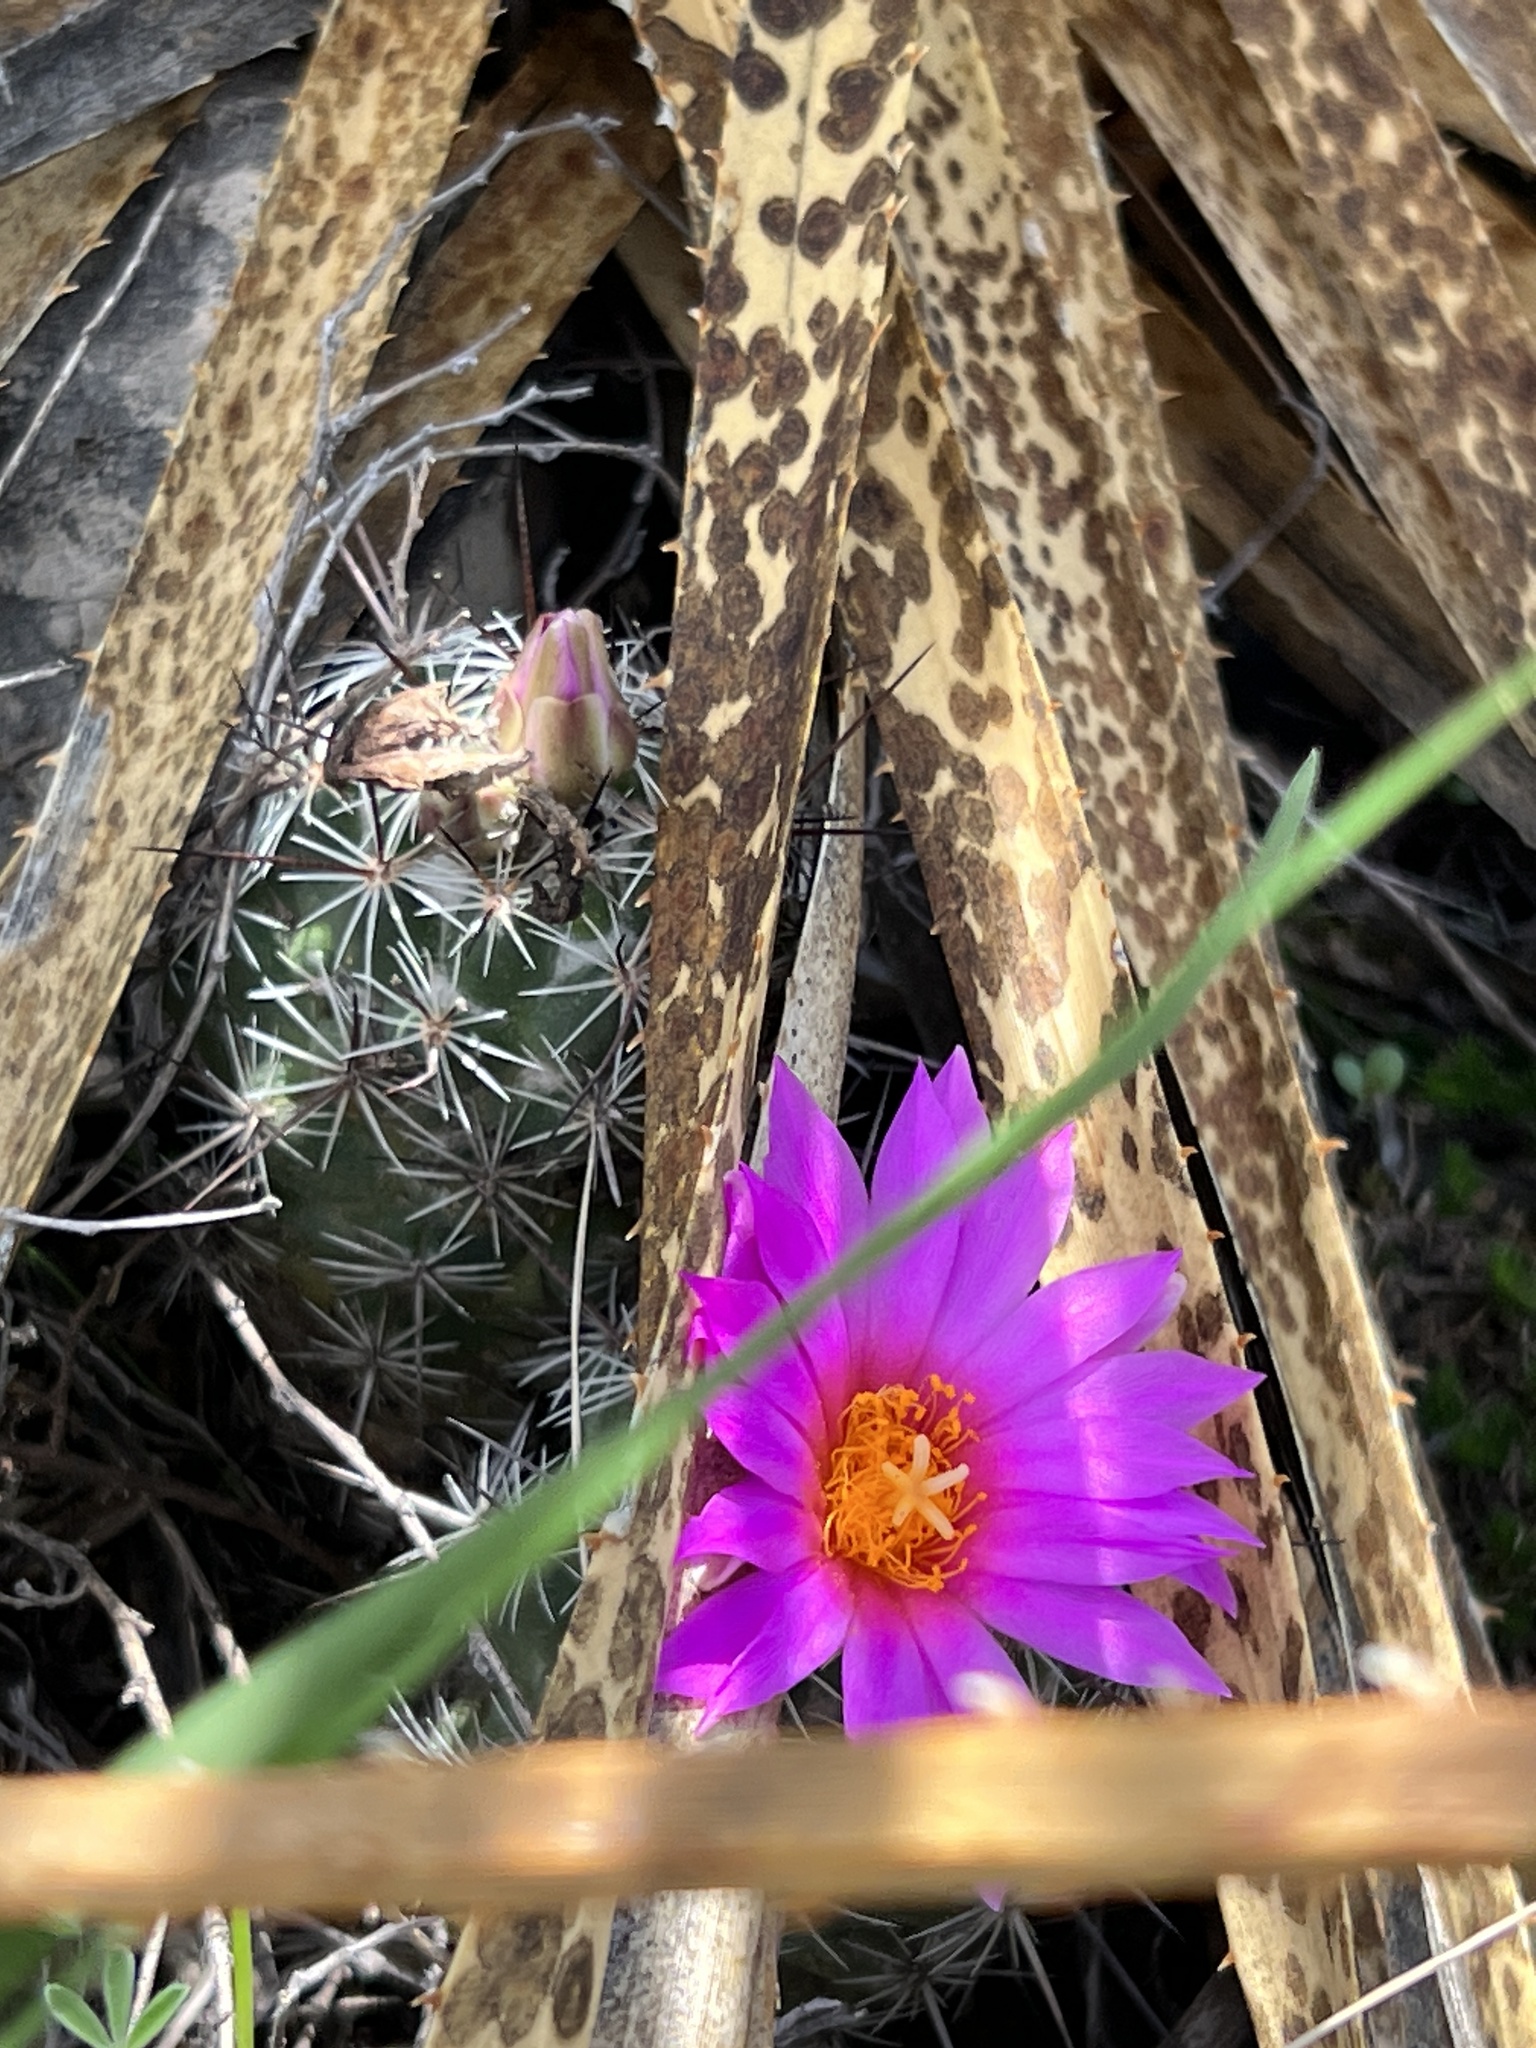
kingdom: Plantae
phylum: Tracheophyta
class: Magnoliopsida
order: Caryophyllales
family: Cactaceae
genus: Cochemiea
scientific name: Cochemiea conoidea
